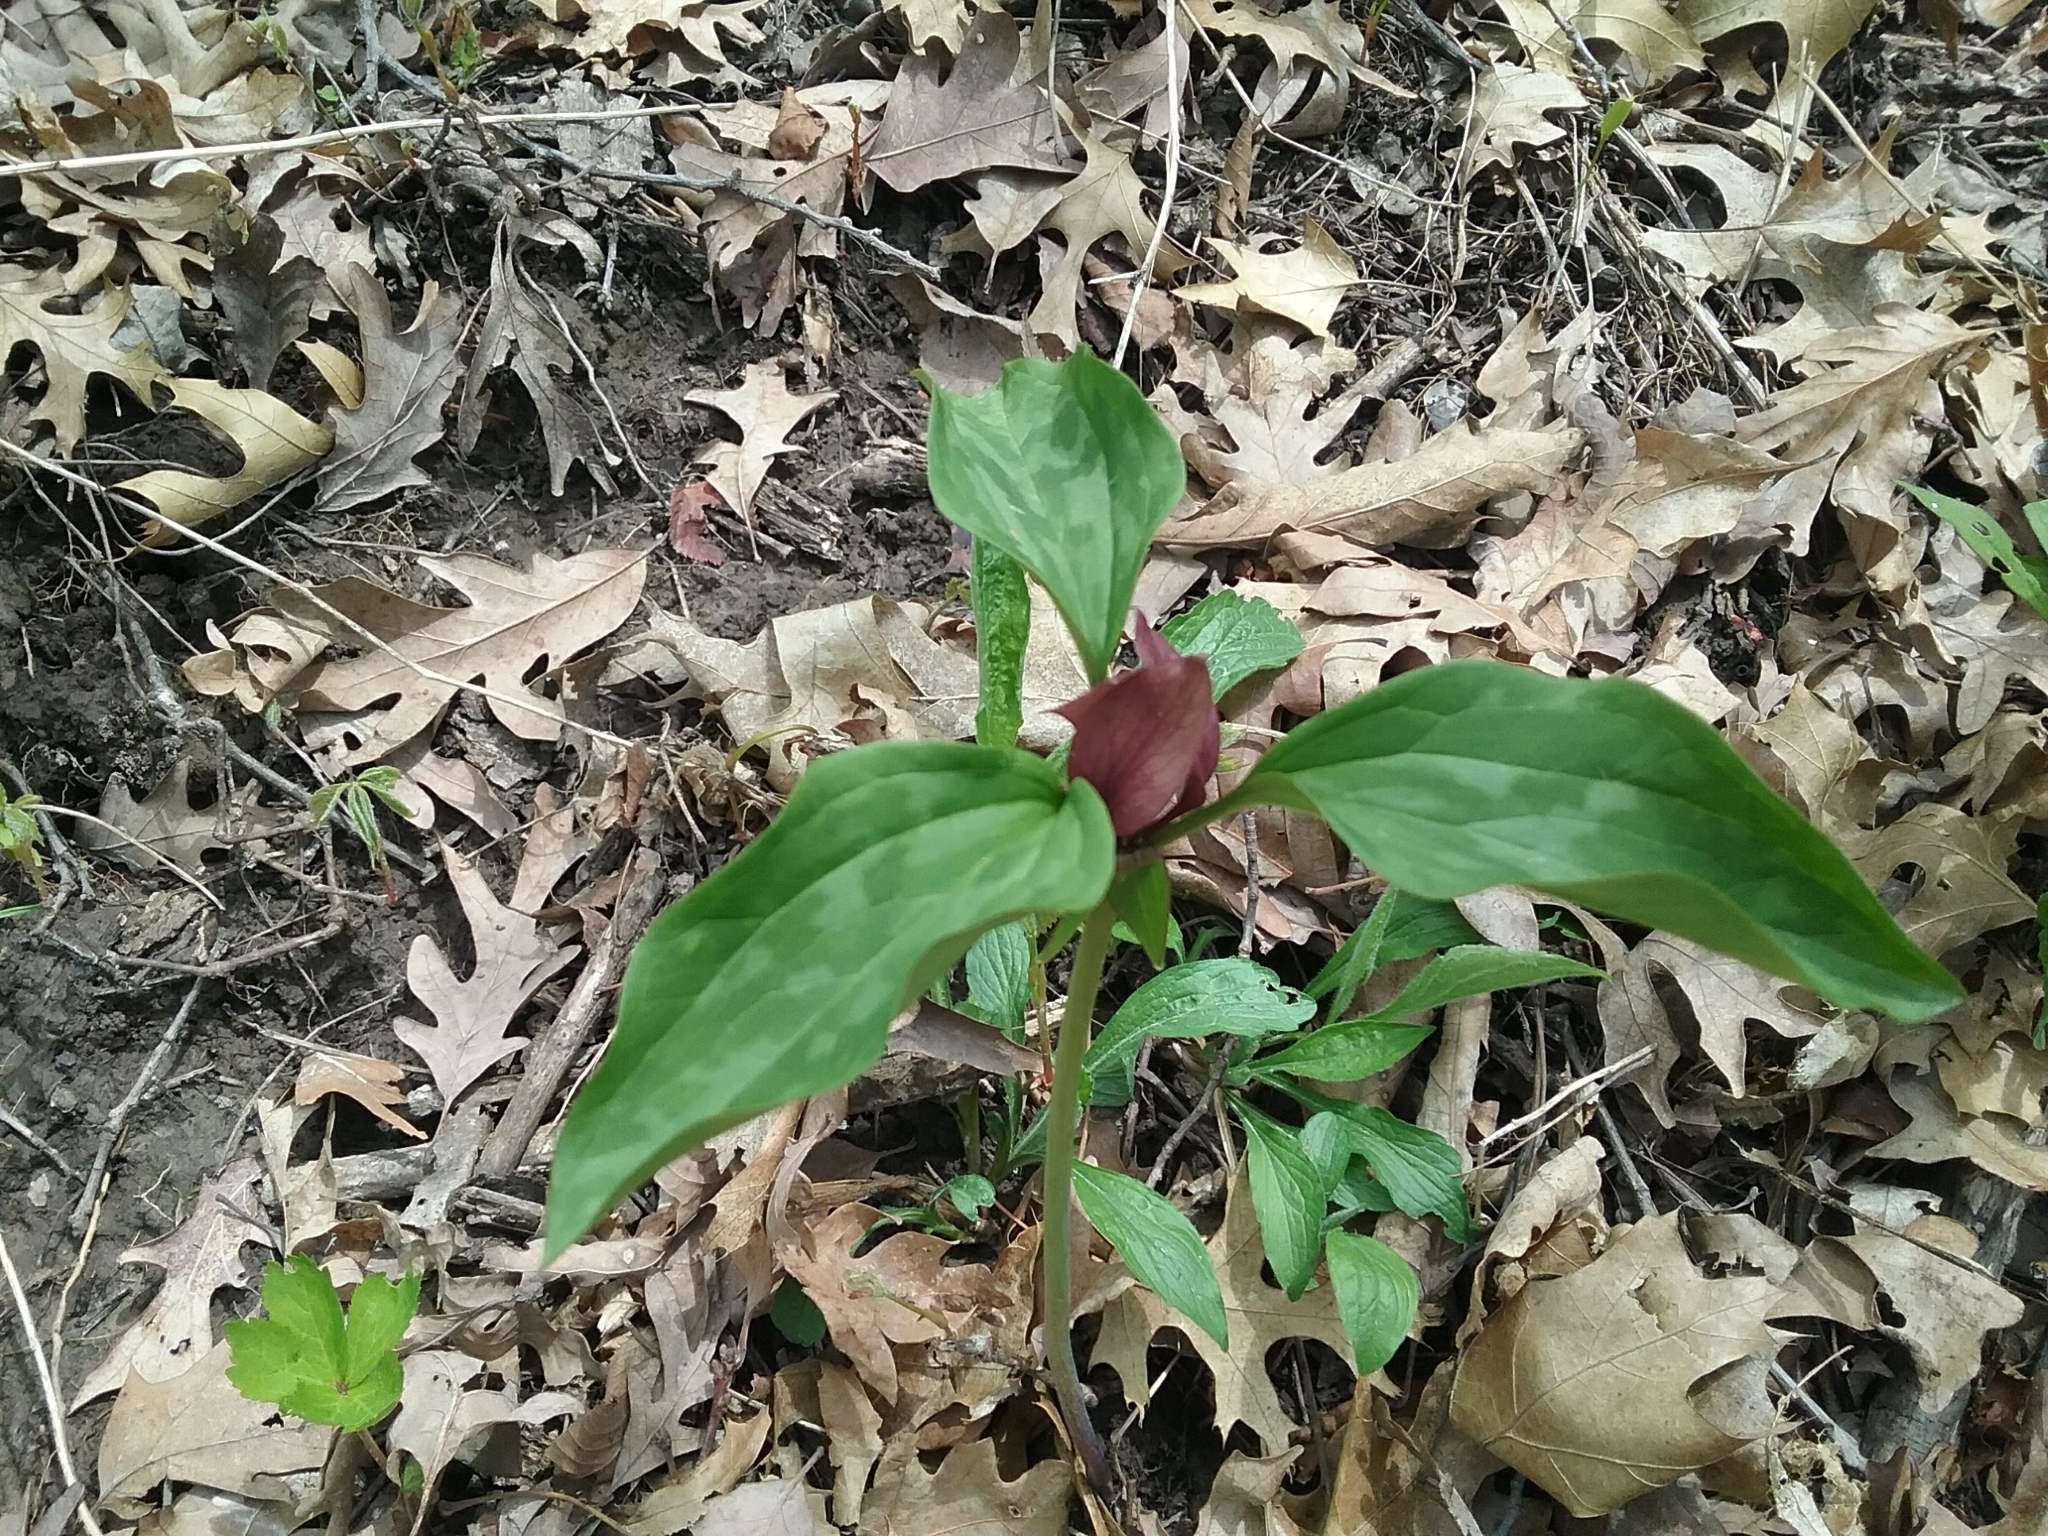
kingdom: Plantae
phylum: Tracheophyta
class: Liliopsida
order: Liliales
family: Melanthiaceae
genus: Trillium
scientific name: Trillium recurvatum
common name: Bloody butcher
